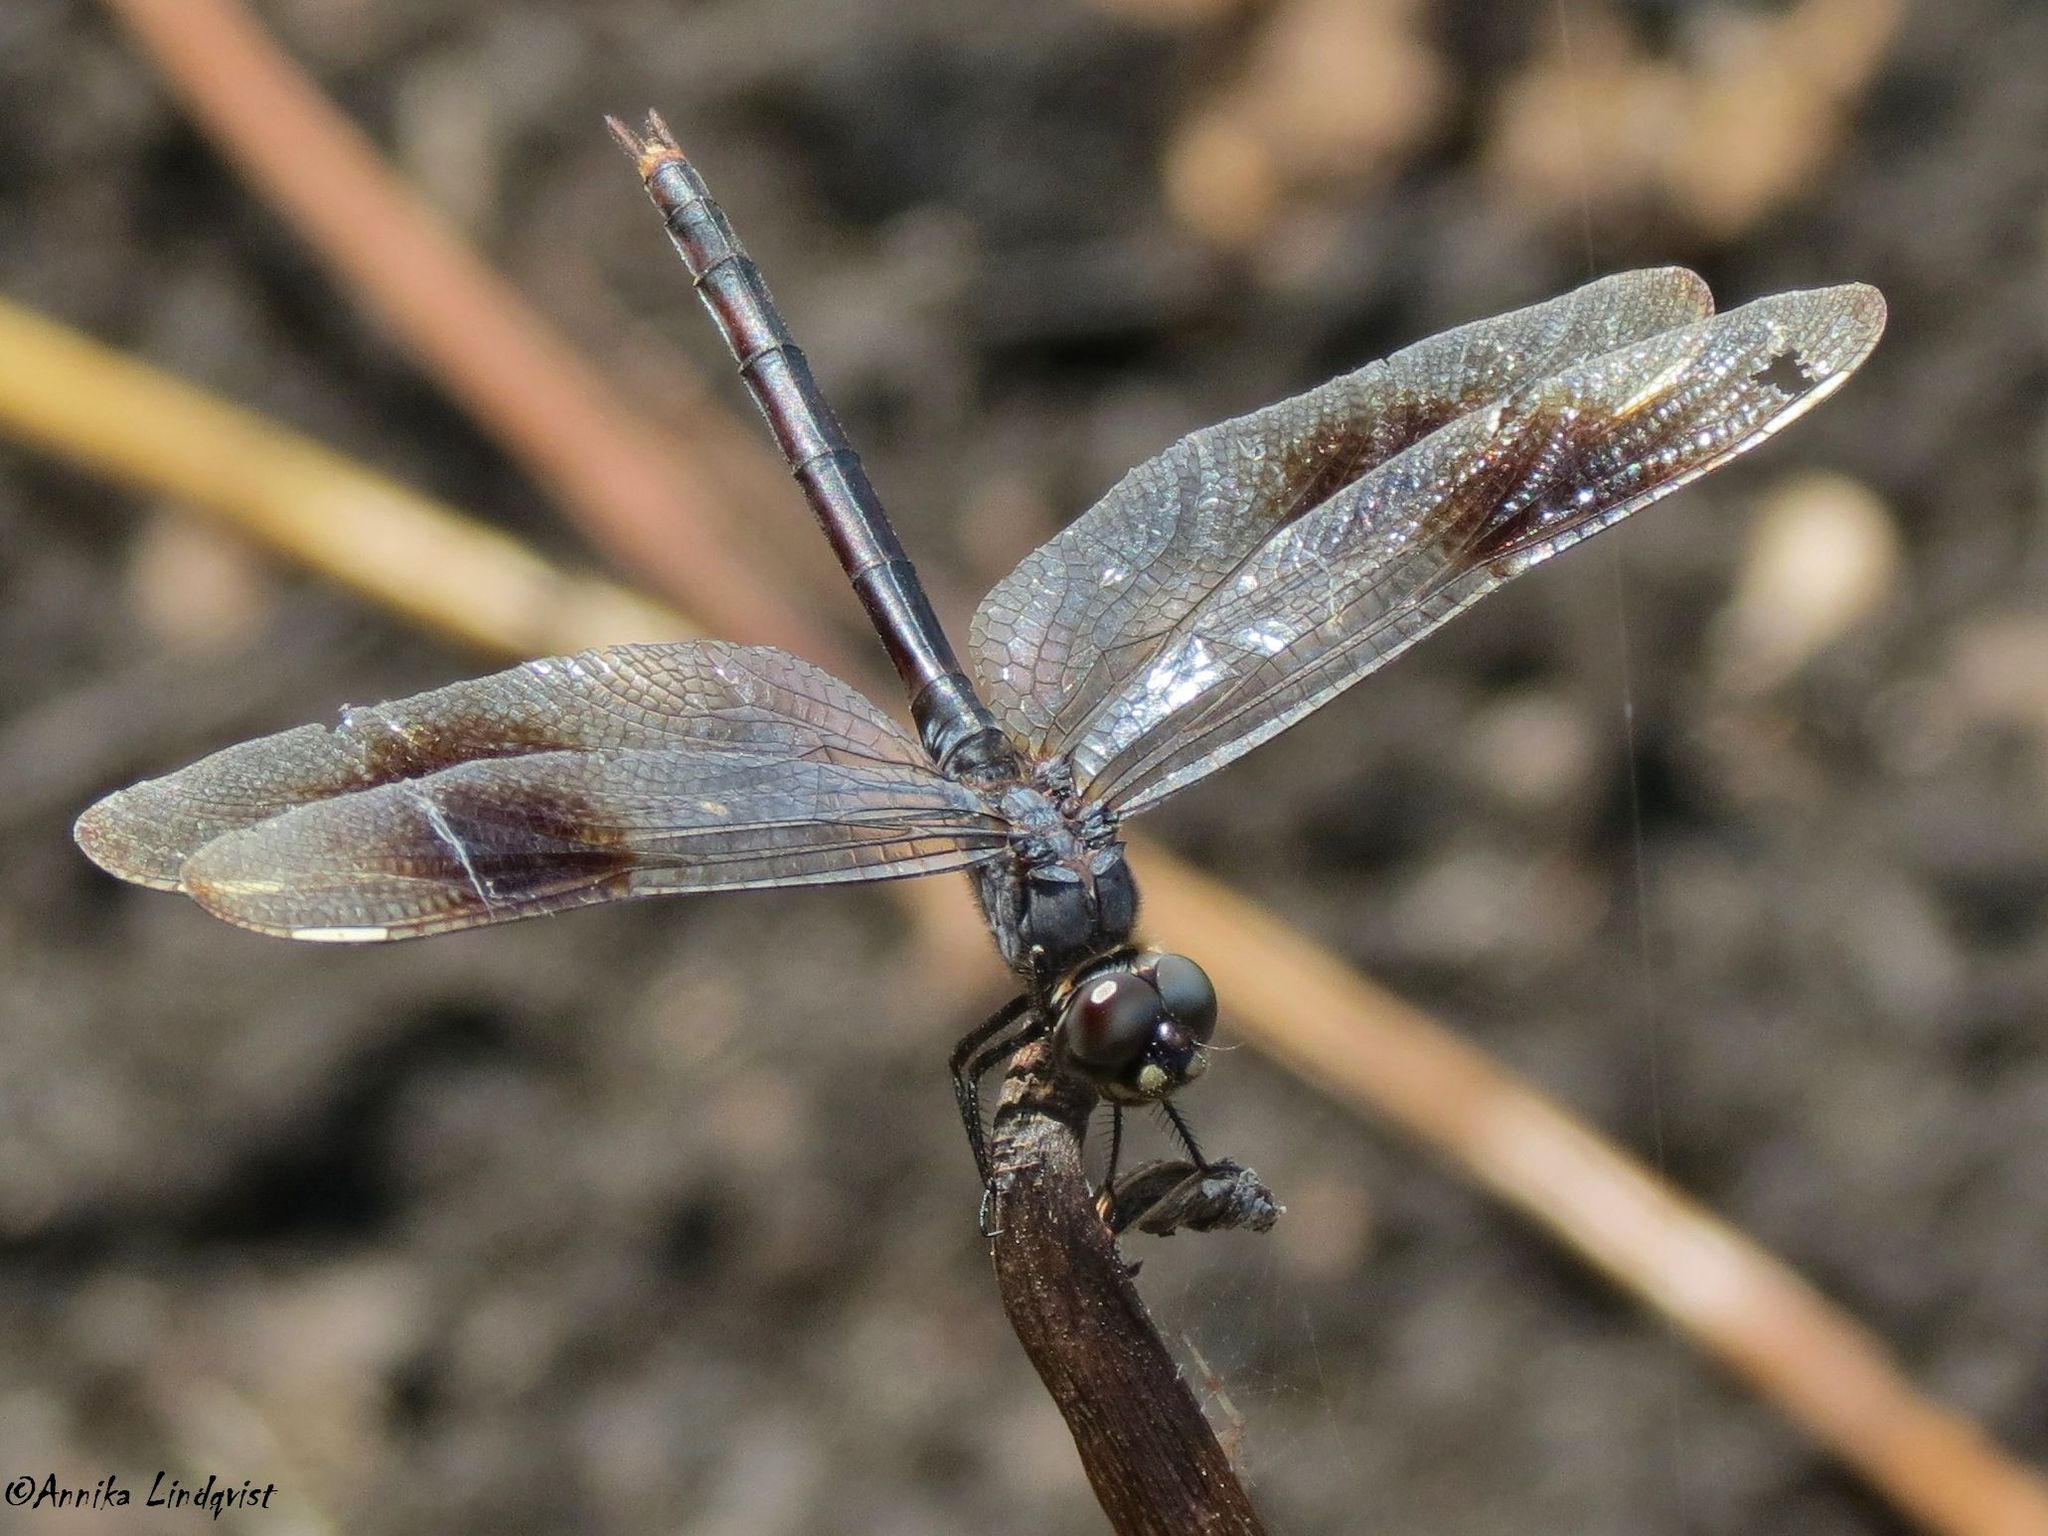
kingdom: Animalia
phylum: Arthropoda
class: Insecta
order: Odonata
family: Libellulidae
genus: Brachymesia
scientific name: Brachymesia gravida
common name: Four-spotted pennant
